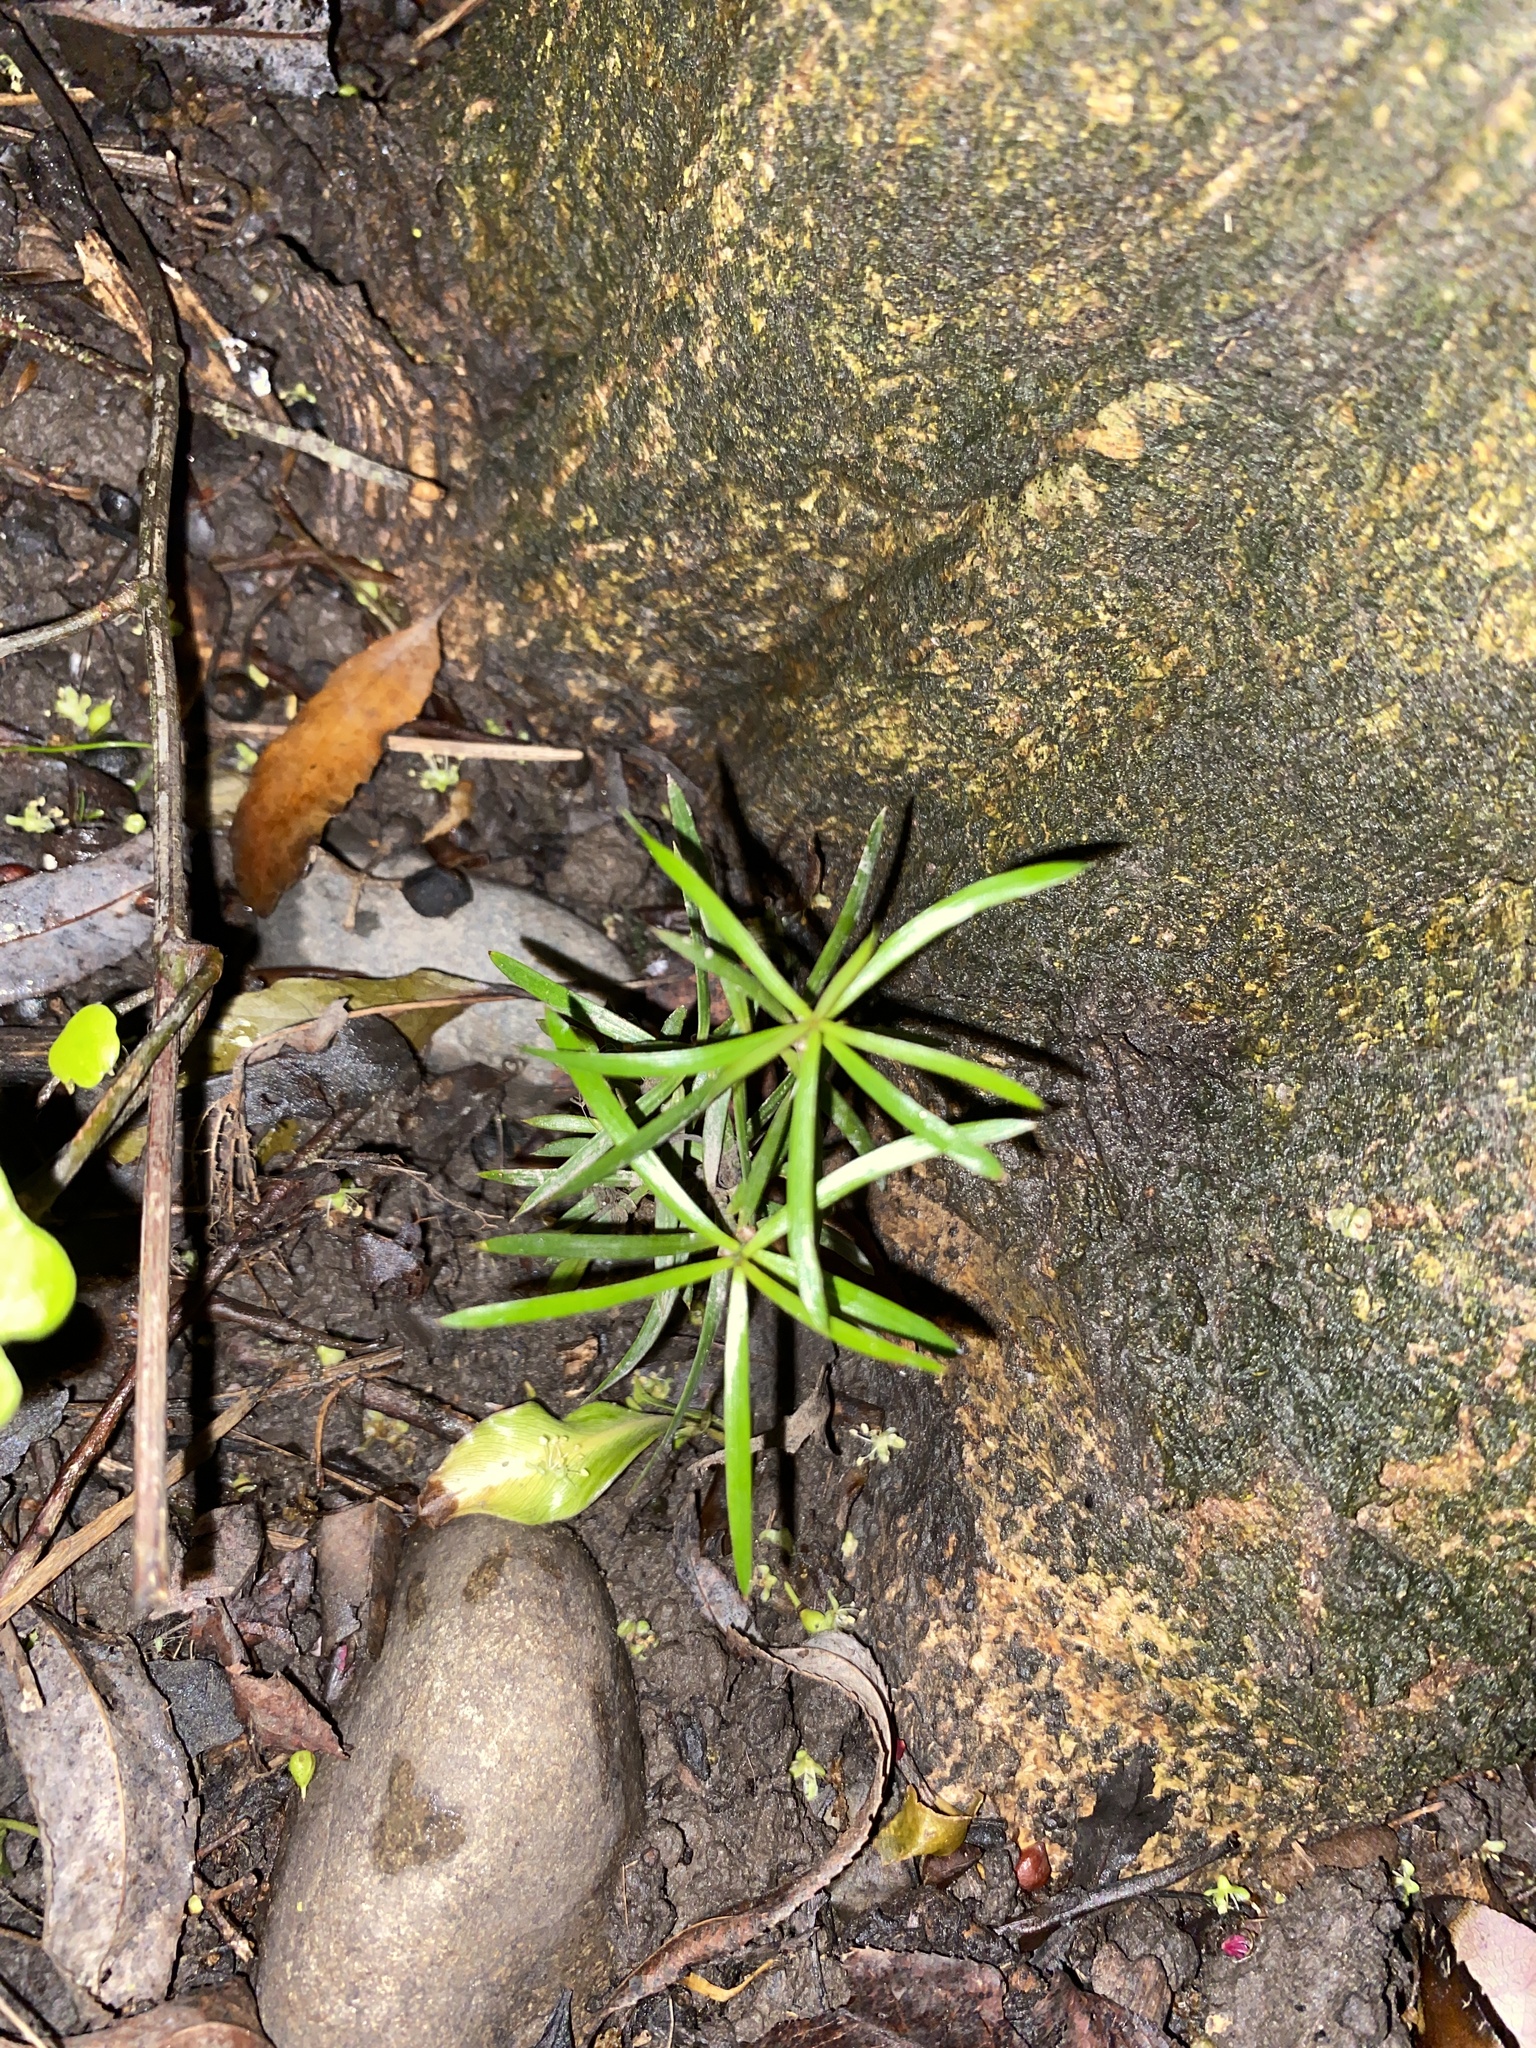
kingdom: Plantae
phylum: Tracheophyta
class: Pinopsida
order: Pinales
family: Podocarpaceae
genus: Podocarpus
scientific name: Podocarpus totara
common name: Totara
